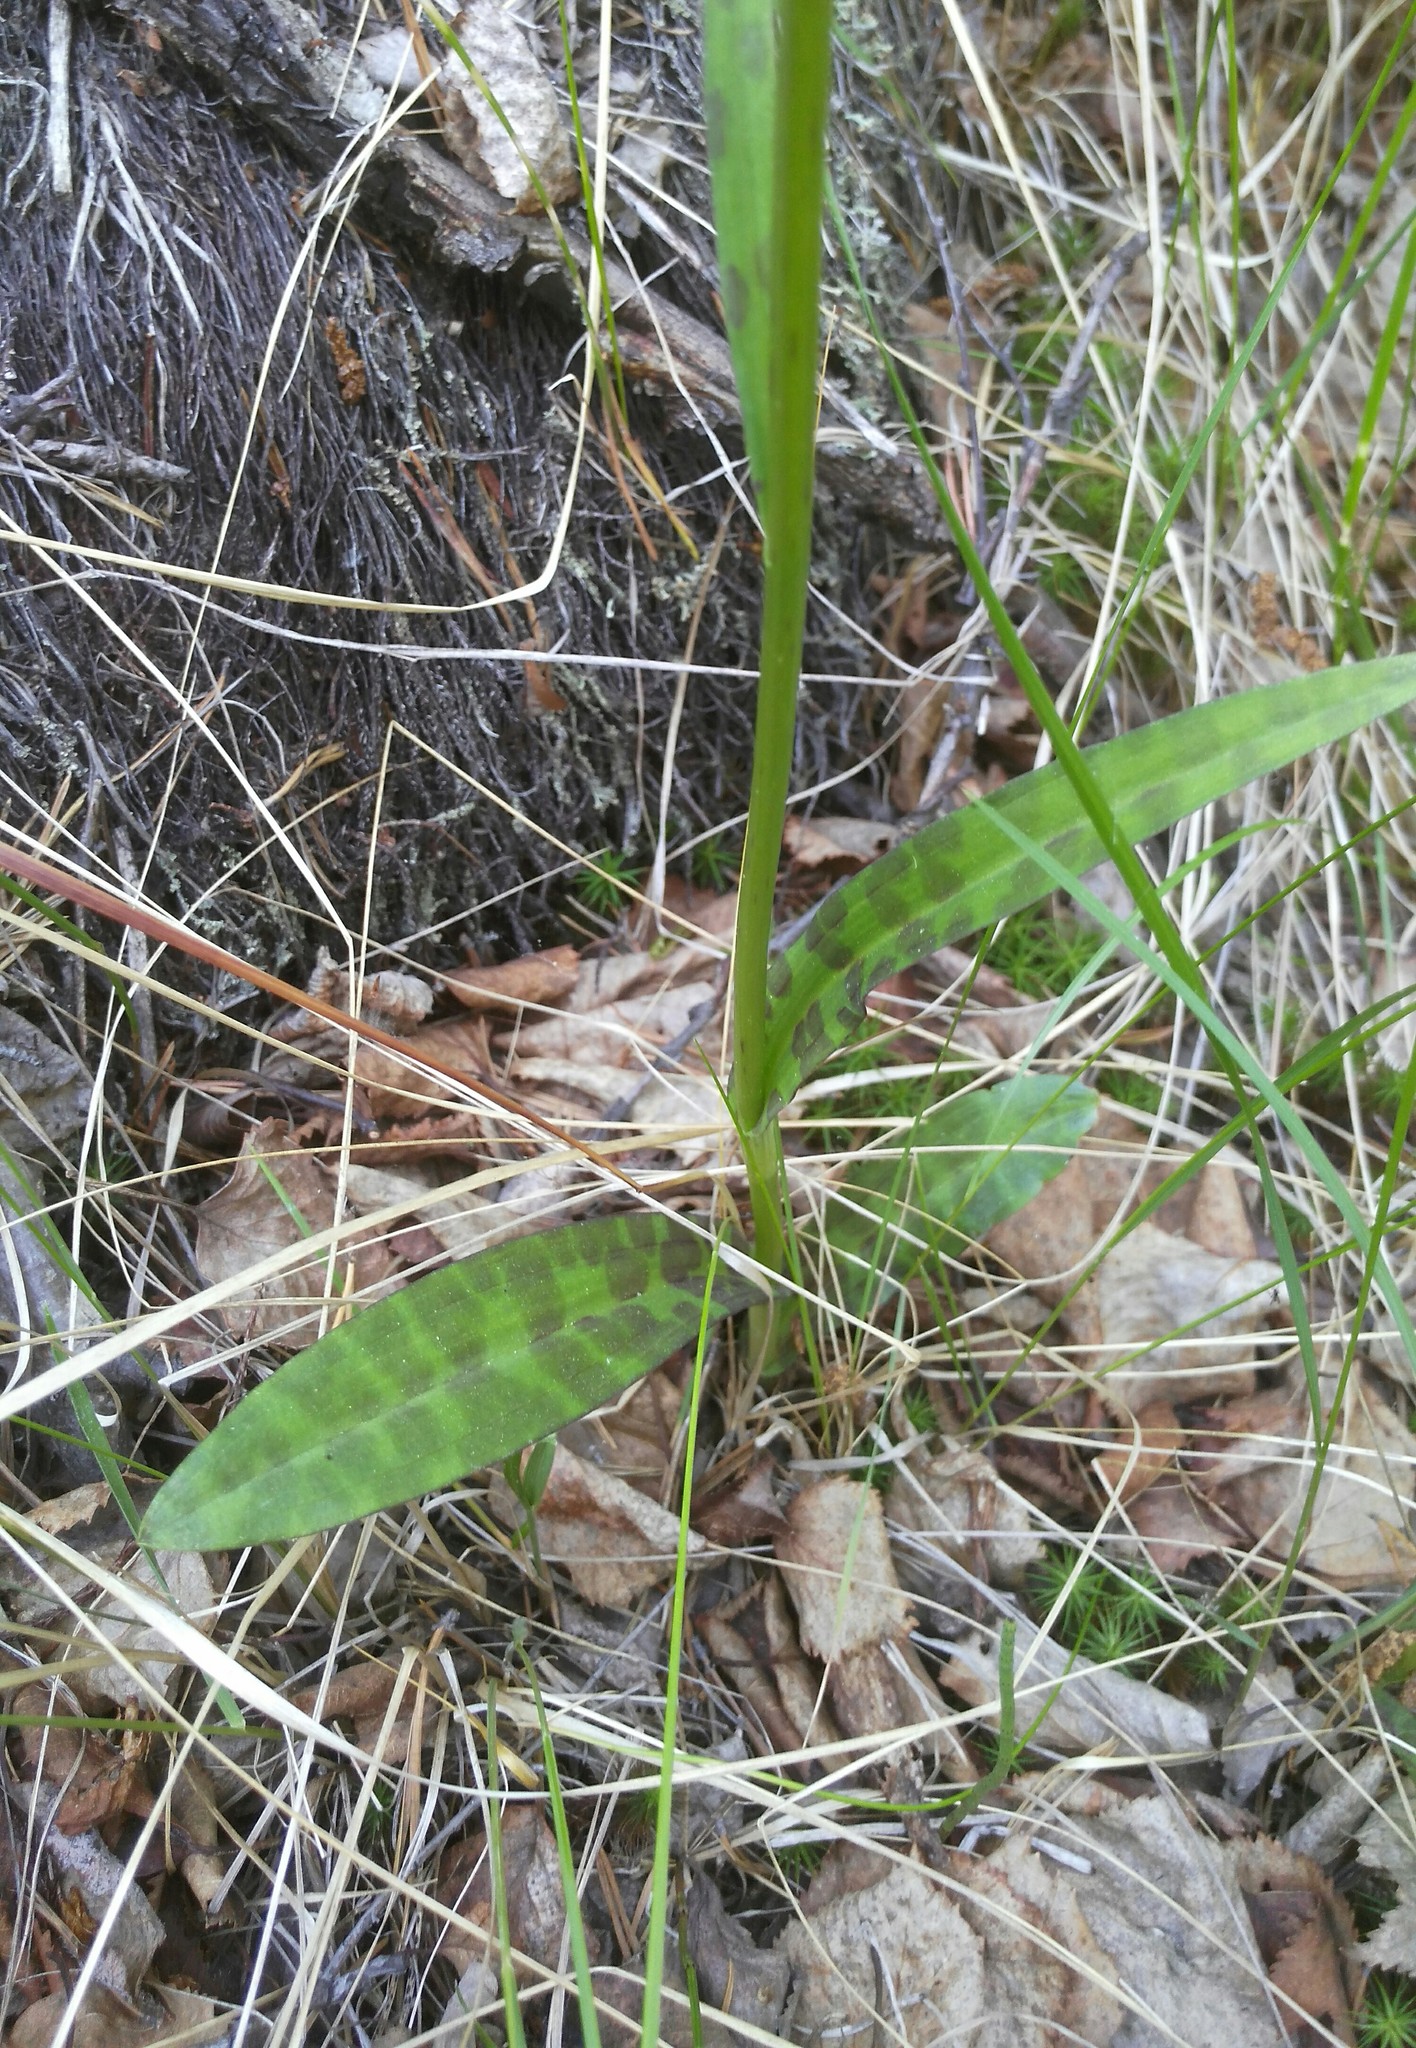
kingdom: Plantae
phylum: Tracheophyta
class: Liliopsida
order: Asparagales
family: Orchidaceae
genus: Dactylorhiza
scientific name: Dactylorhiza maculata
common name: Heath spotted-orchid
